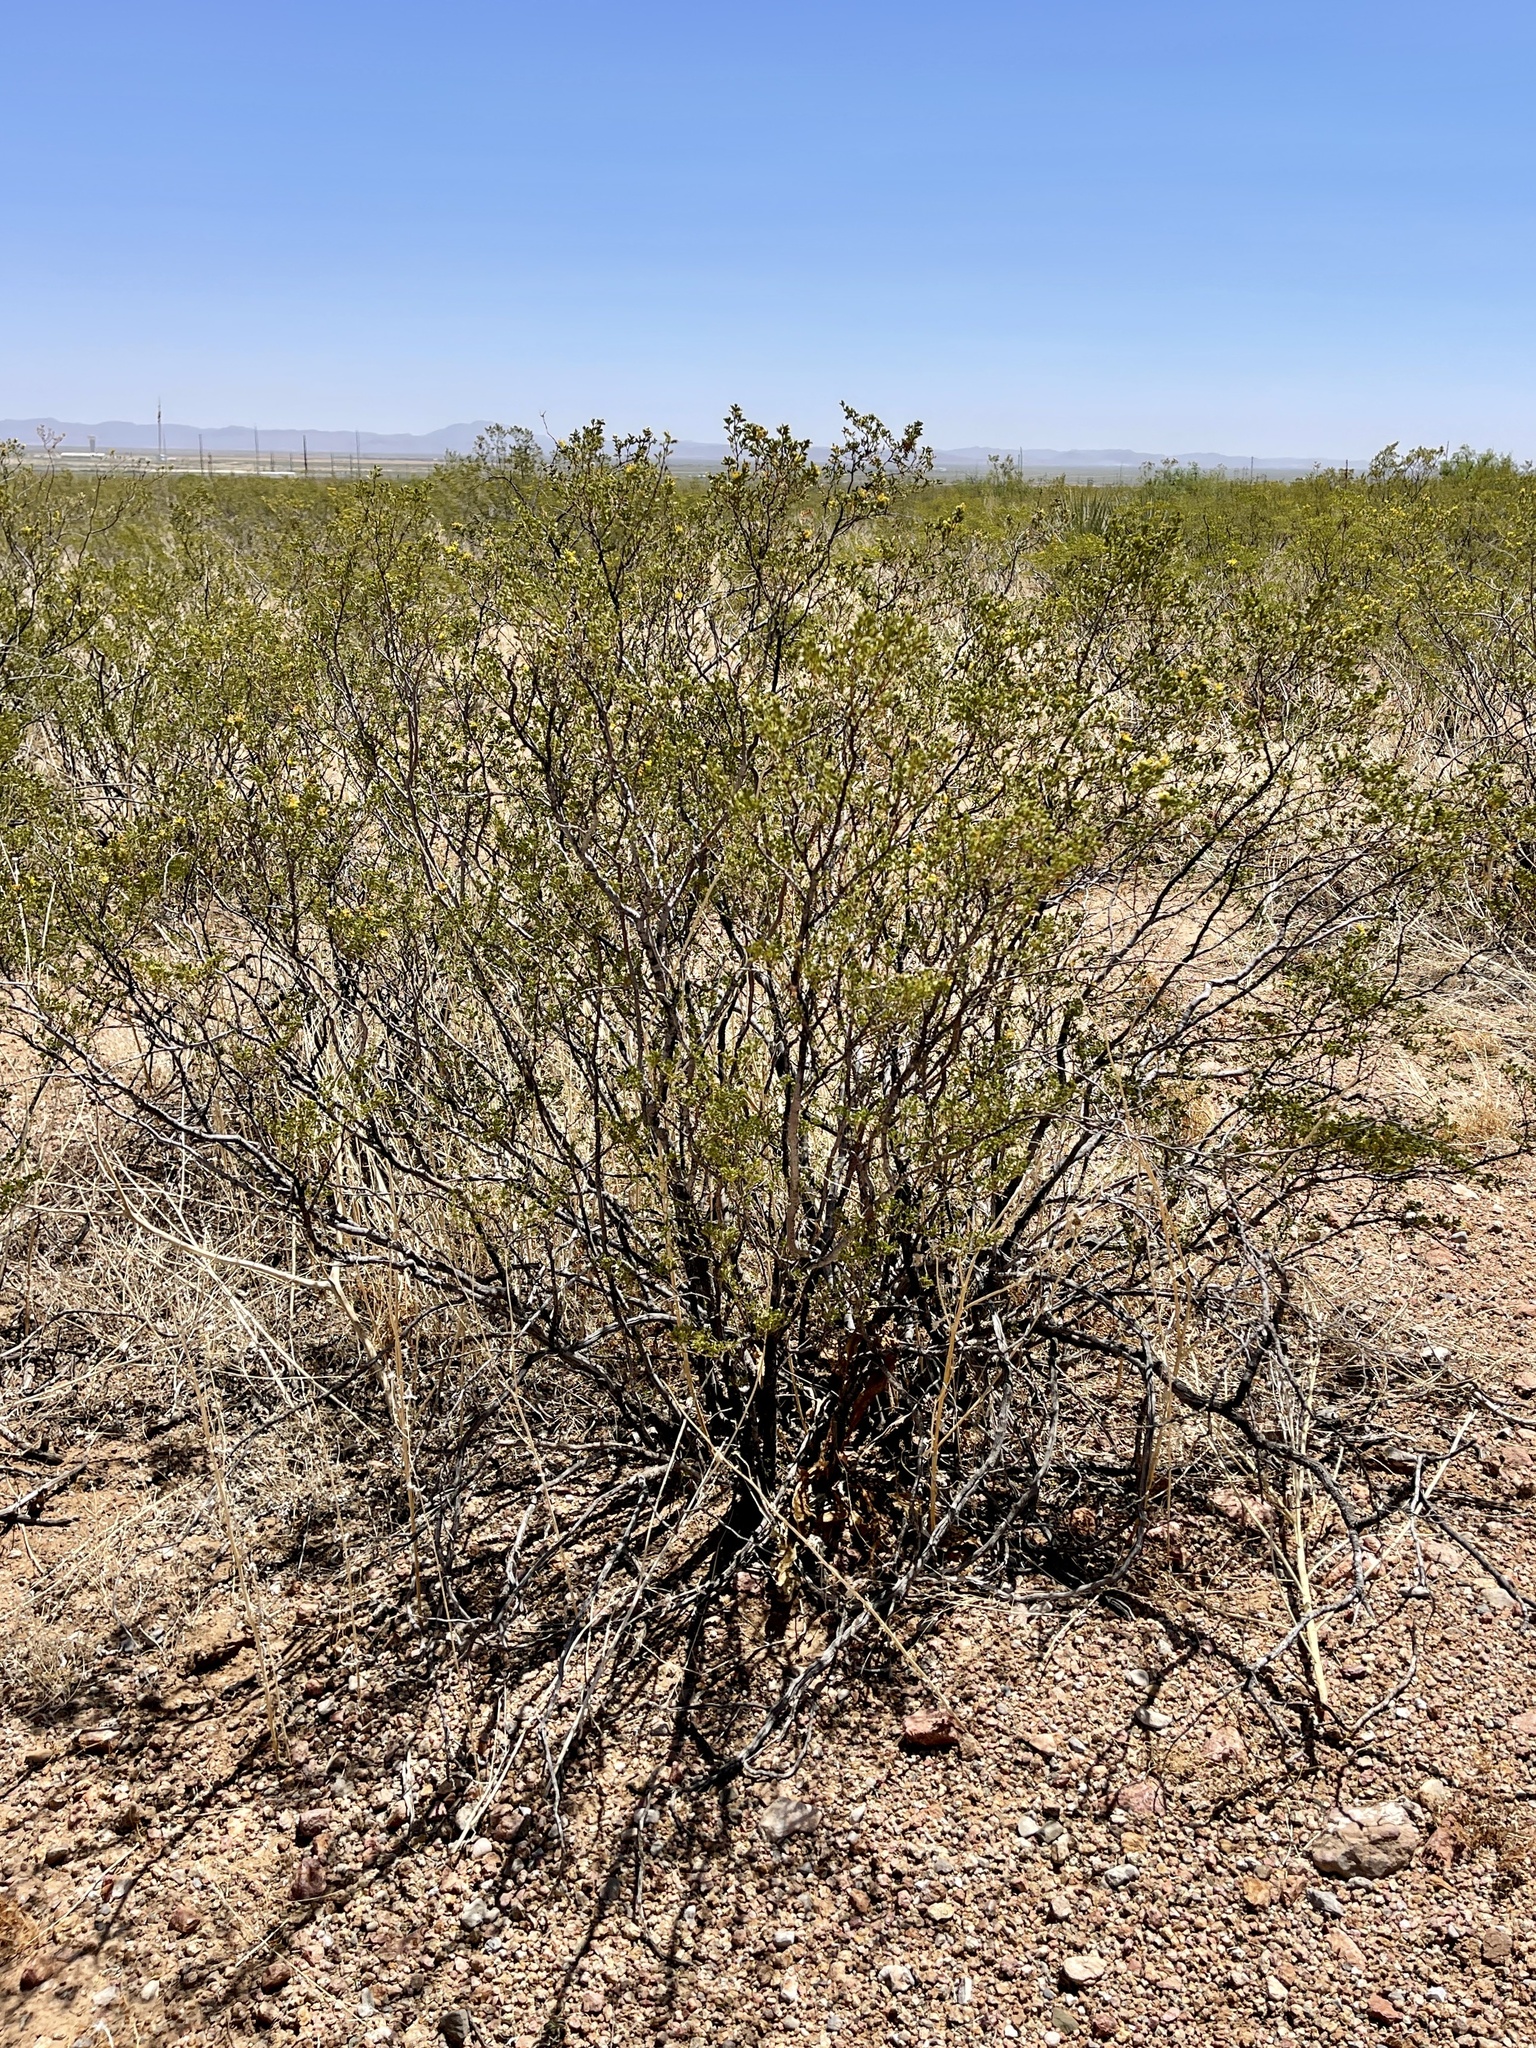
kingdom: Plantae
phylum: Tracheophyta
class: Magnoliopsida
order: Zygophyllales
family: Zygophyllaceae
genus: Larrea
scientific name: Larrea tridentata
